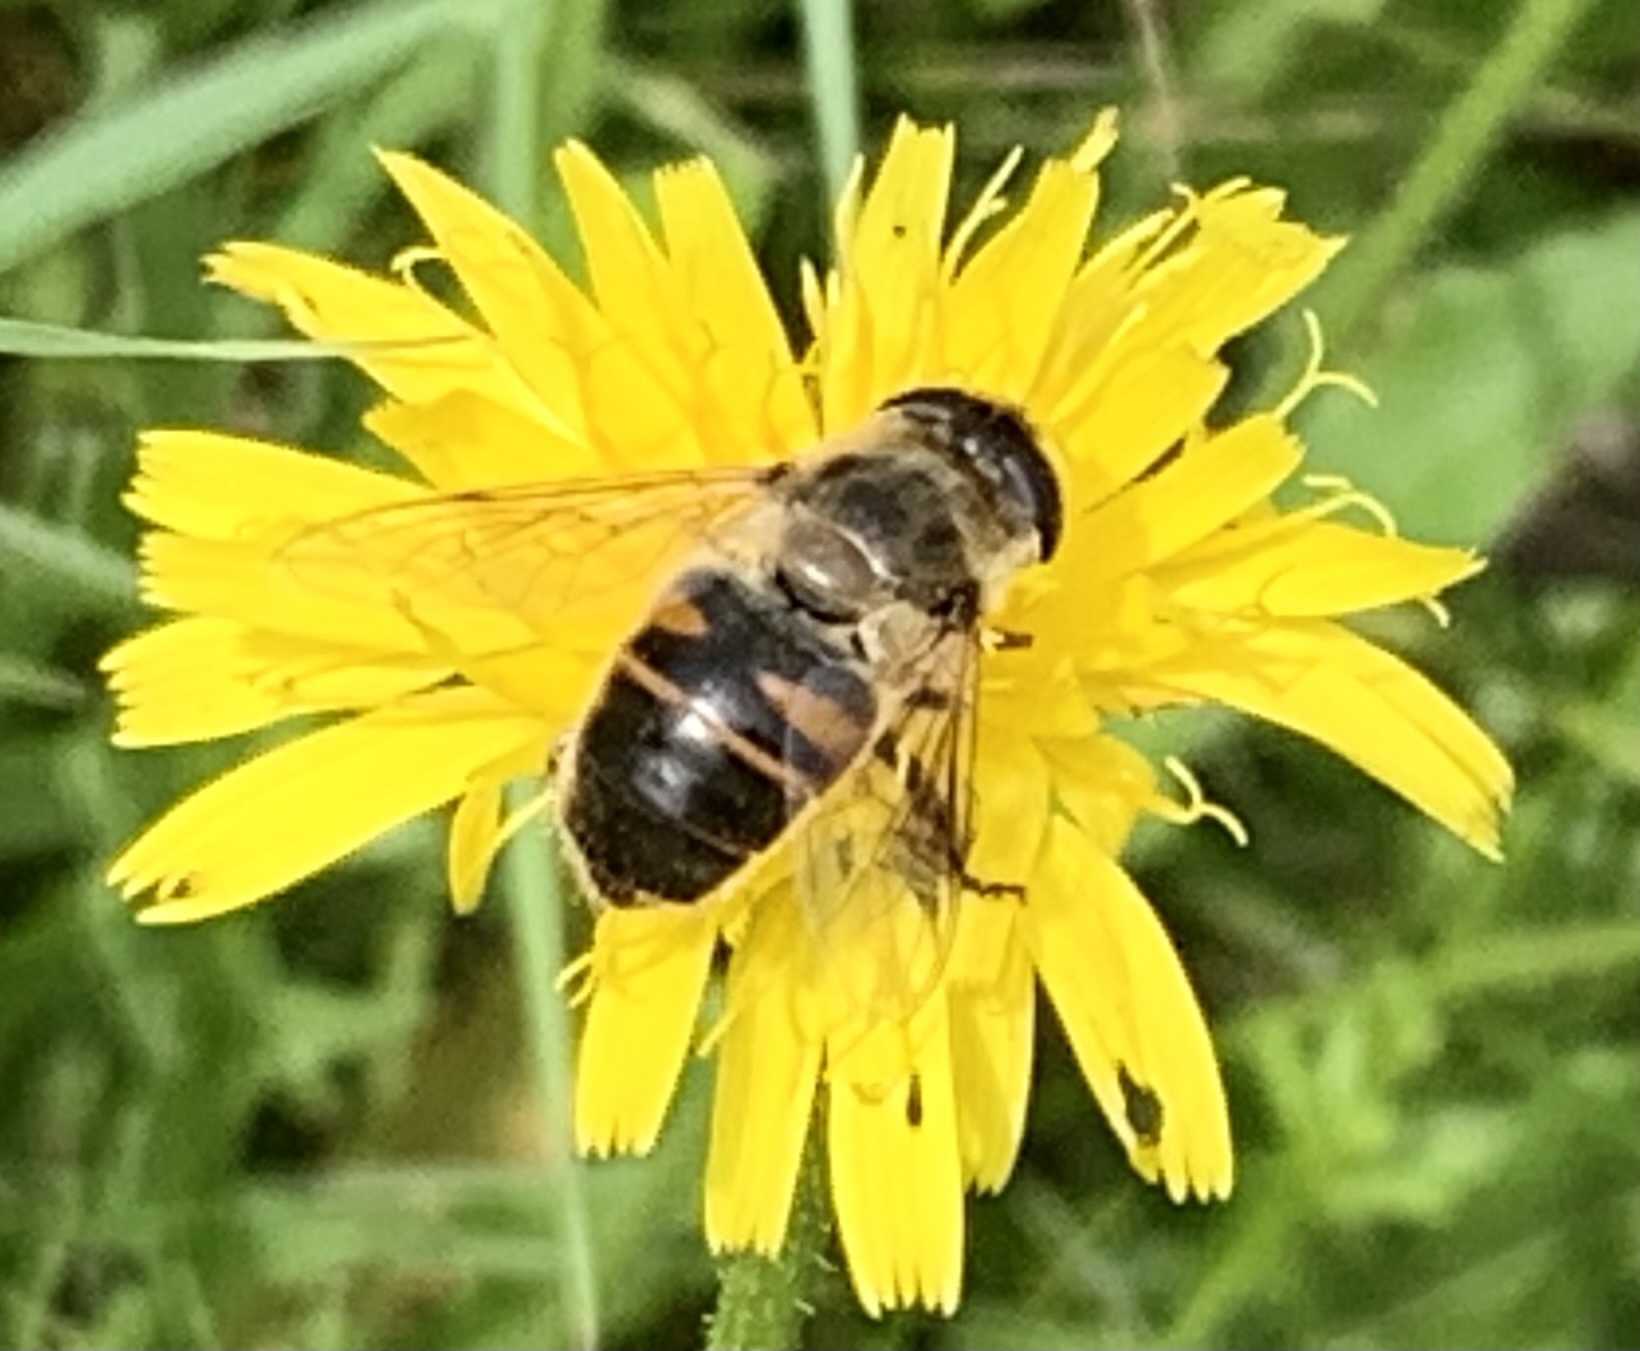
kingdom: Animalia
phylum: Arthropoda
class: Insecta
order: Diptera
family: Syrphidae
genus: Eristalis
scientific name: Eristalis tenax
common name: Drone fly
